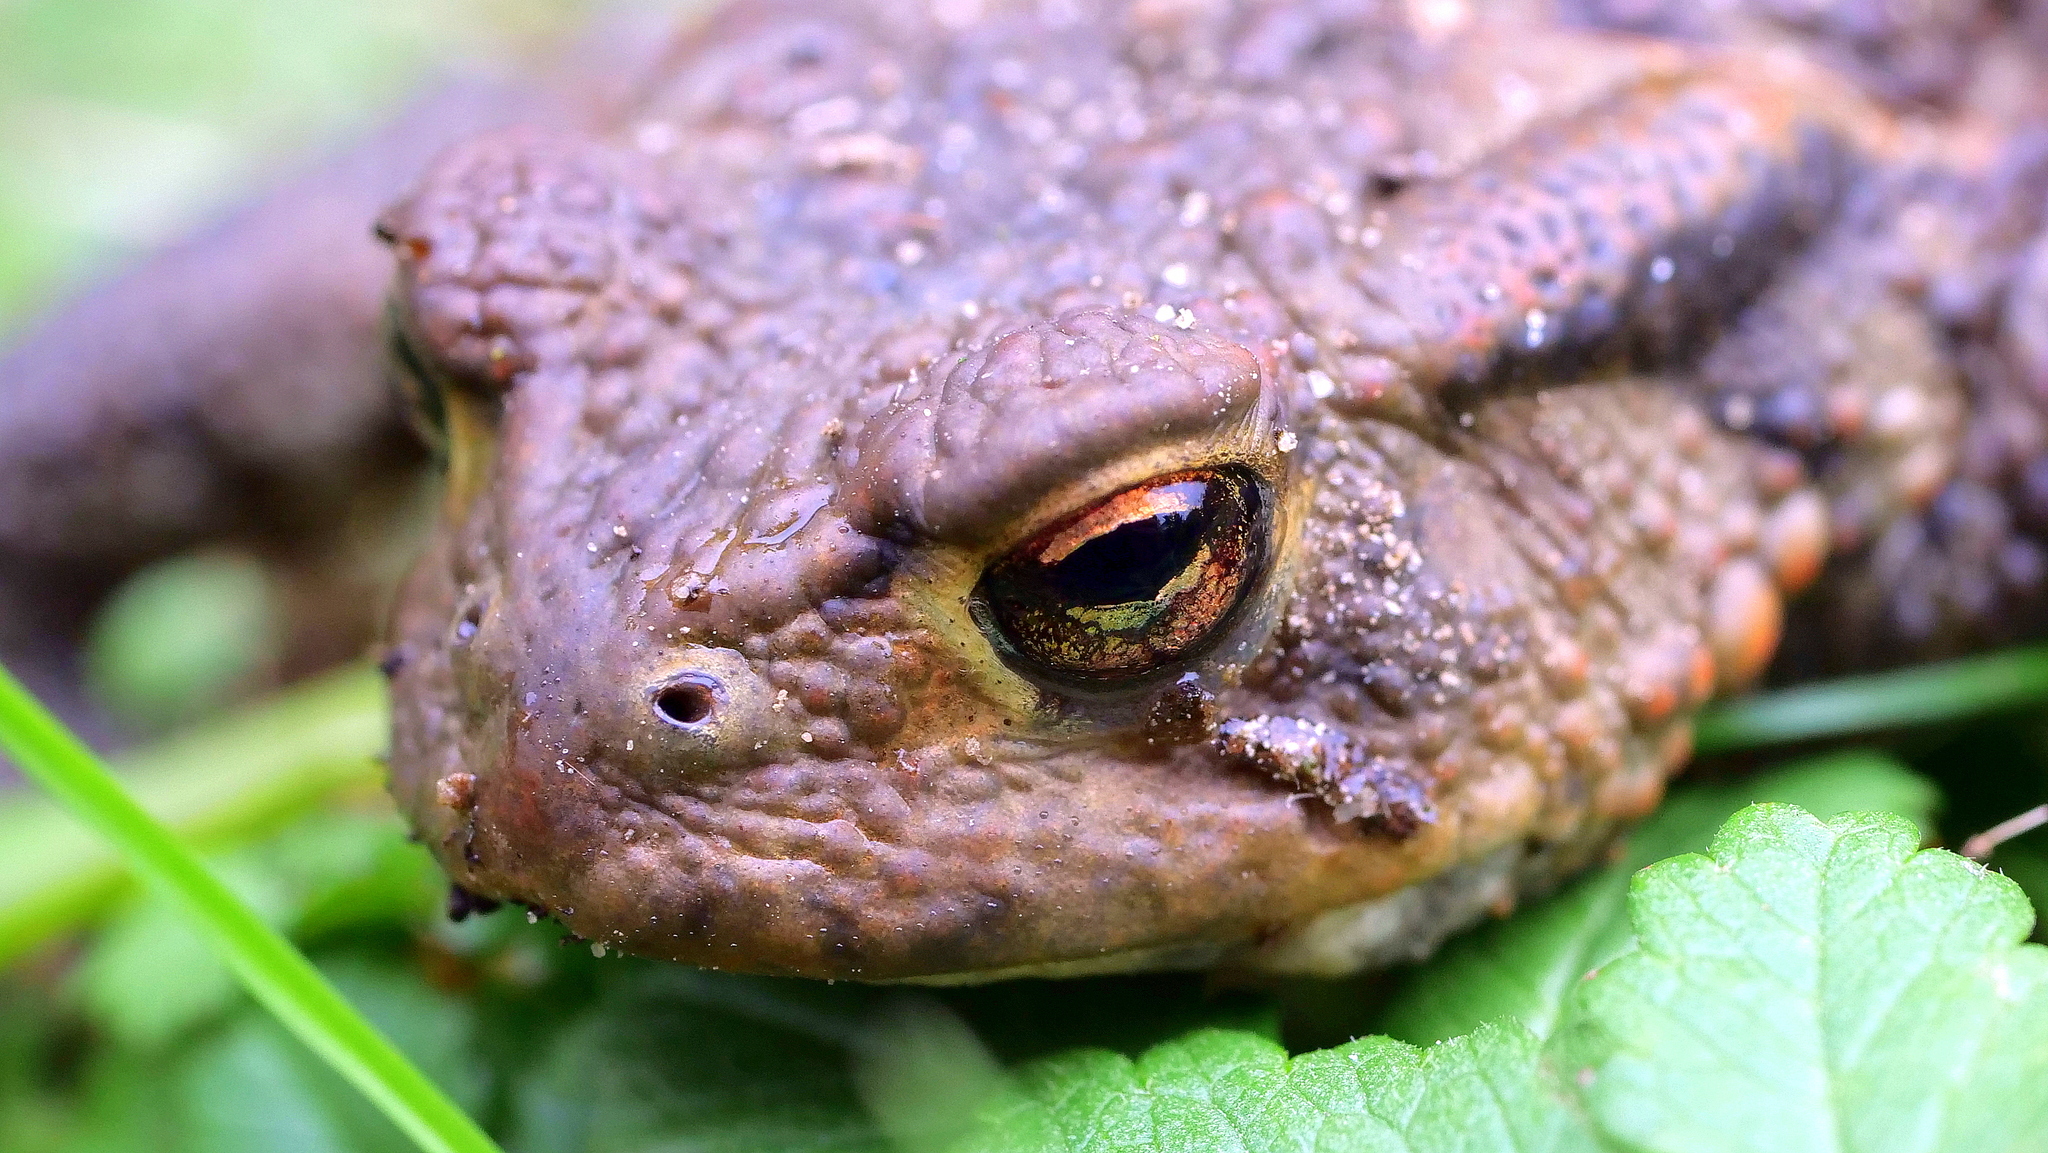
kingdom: Animalia
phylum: Chordata
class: Amphibia
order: Anura
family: Bufonidae
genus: Bufo
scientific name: Bufo bufo
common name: Common toad
